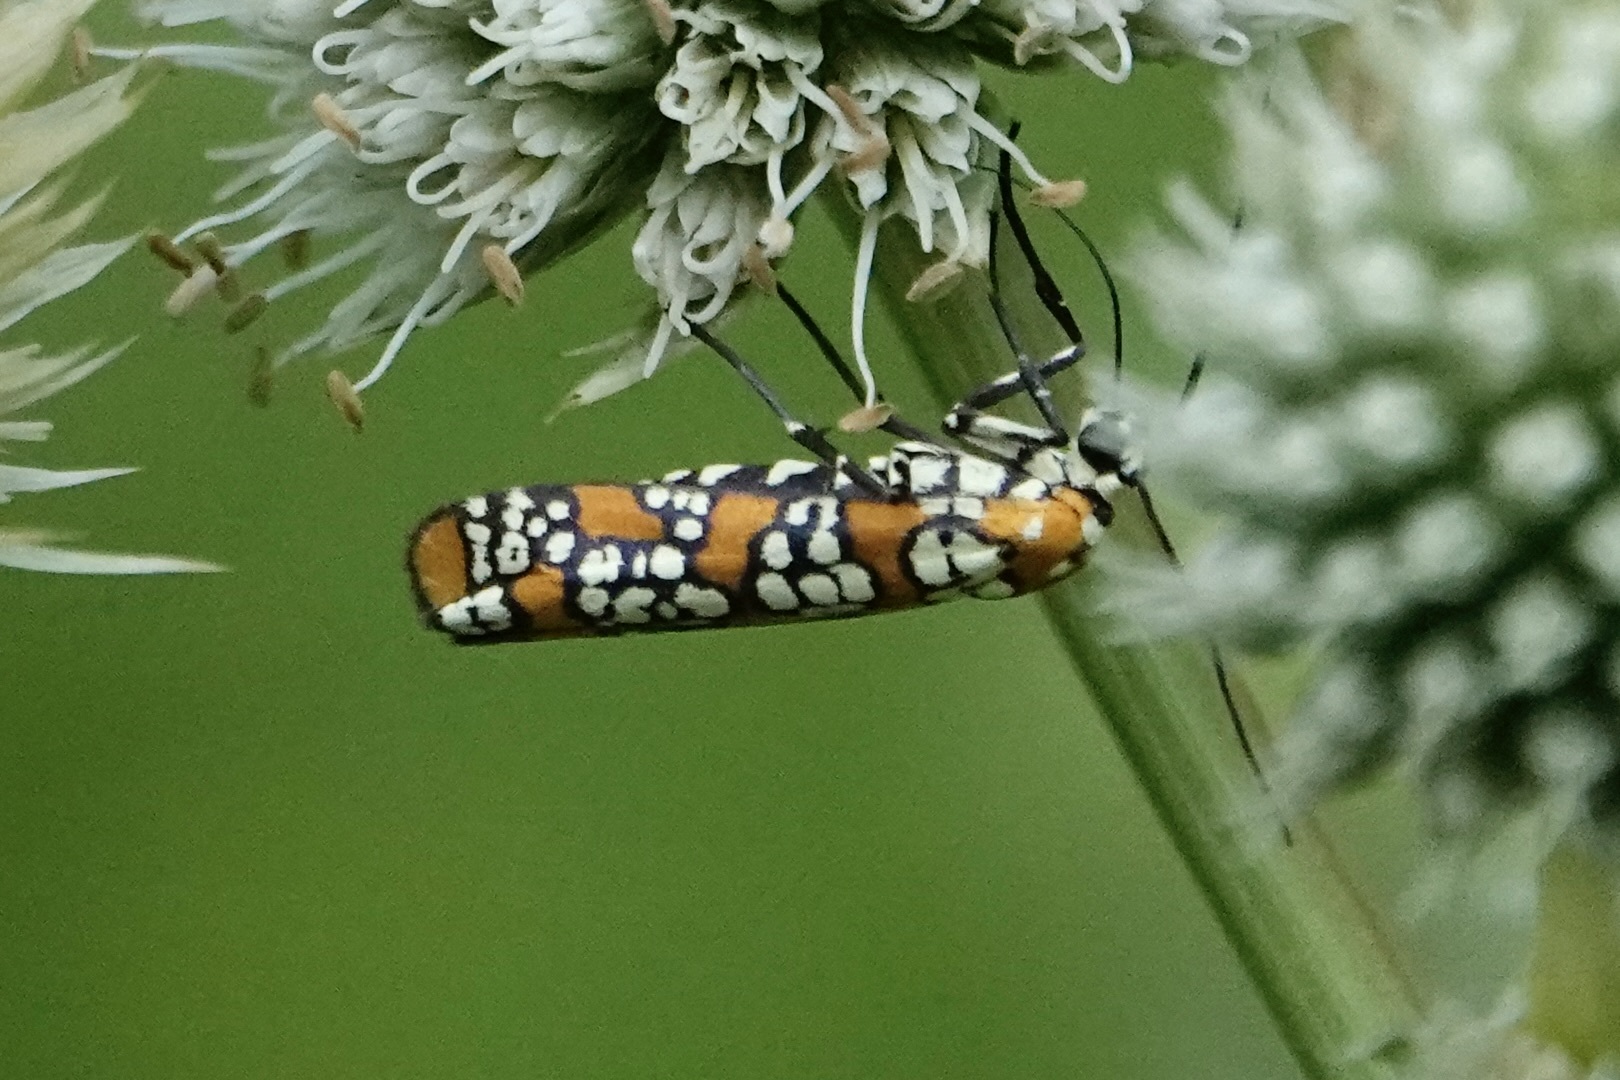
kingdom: Animalia
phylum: Arthropoda
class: Insecta
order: Lepidoptera
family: Attevidae
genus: Atteva
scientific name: Atteva punctella
